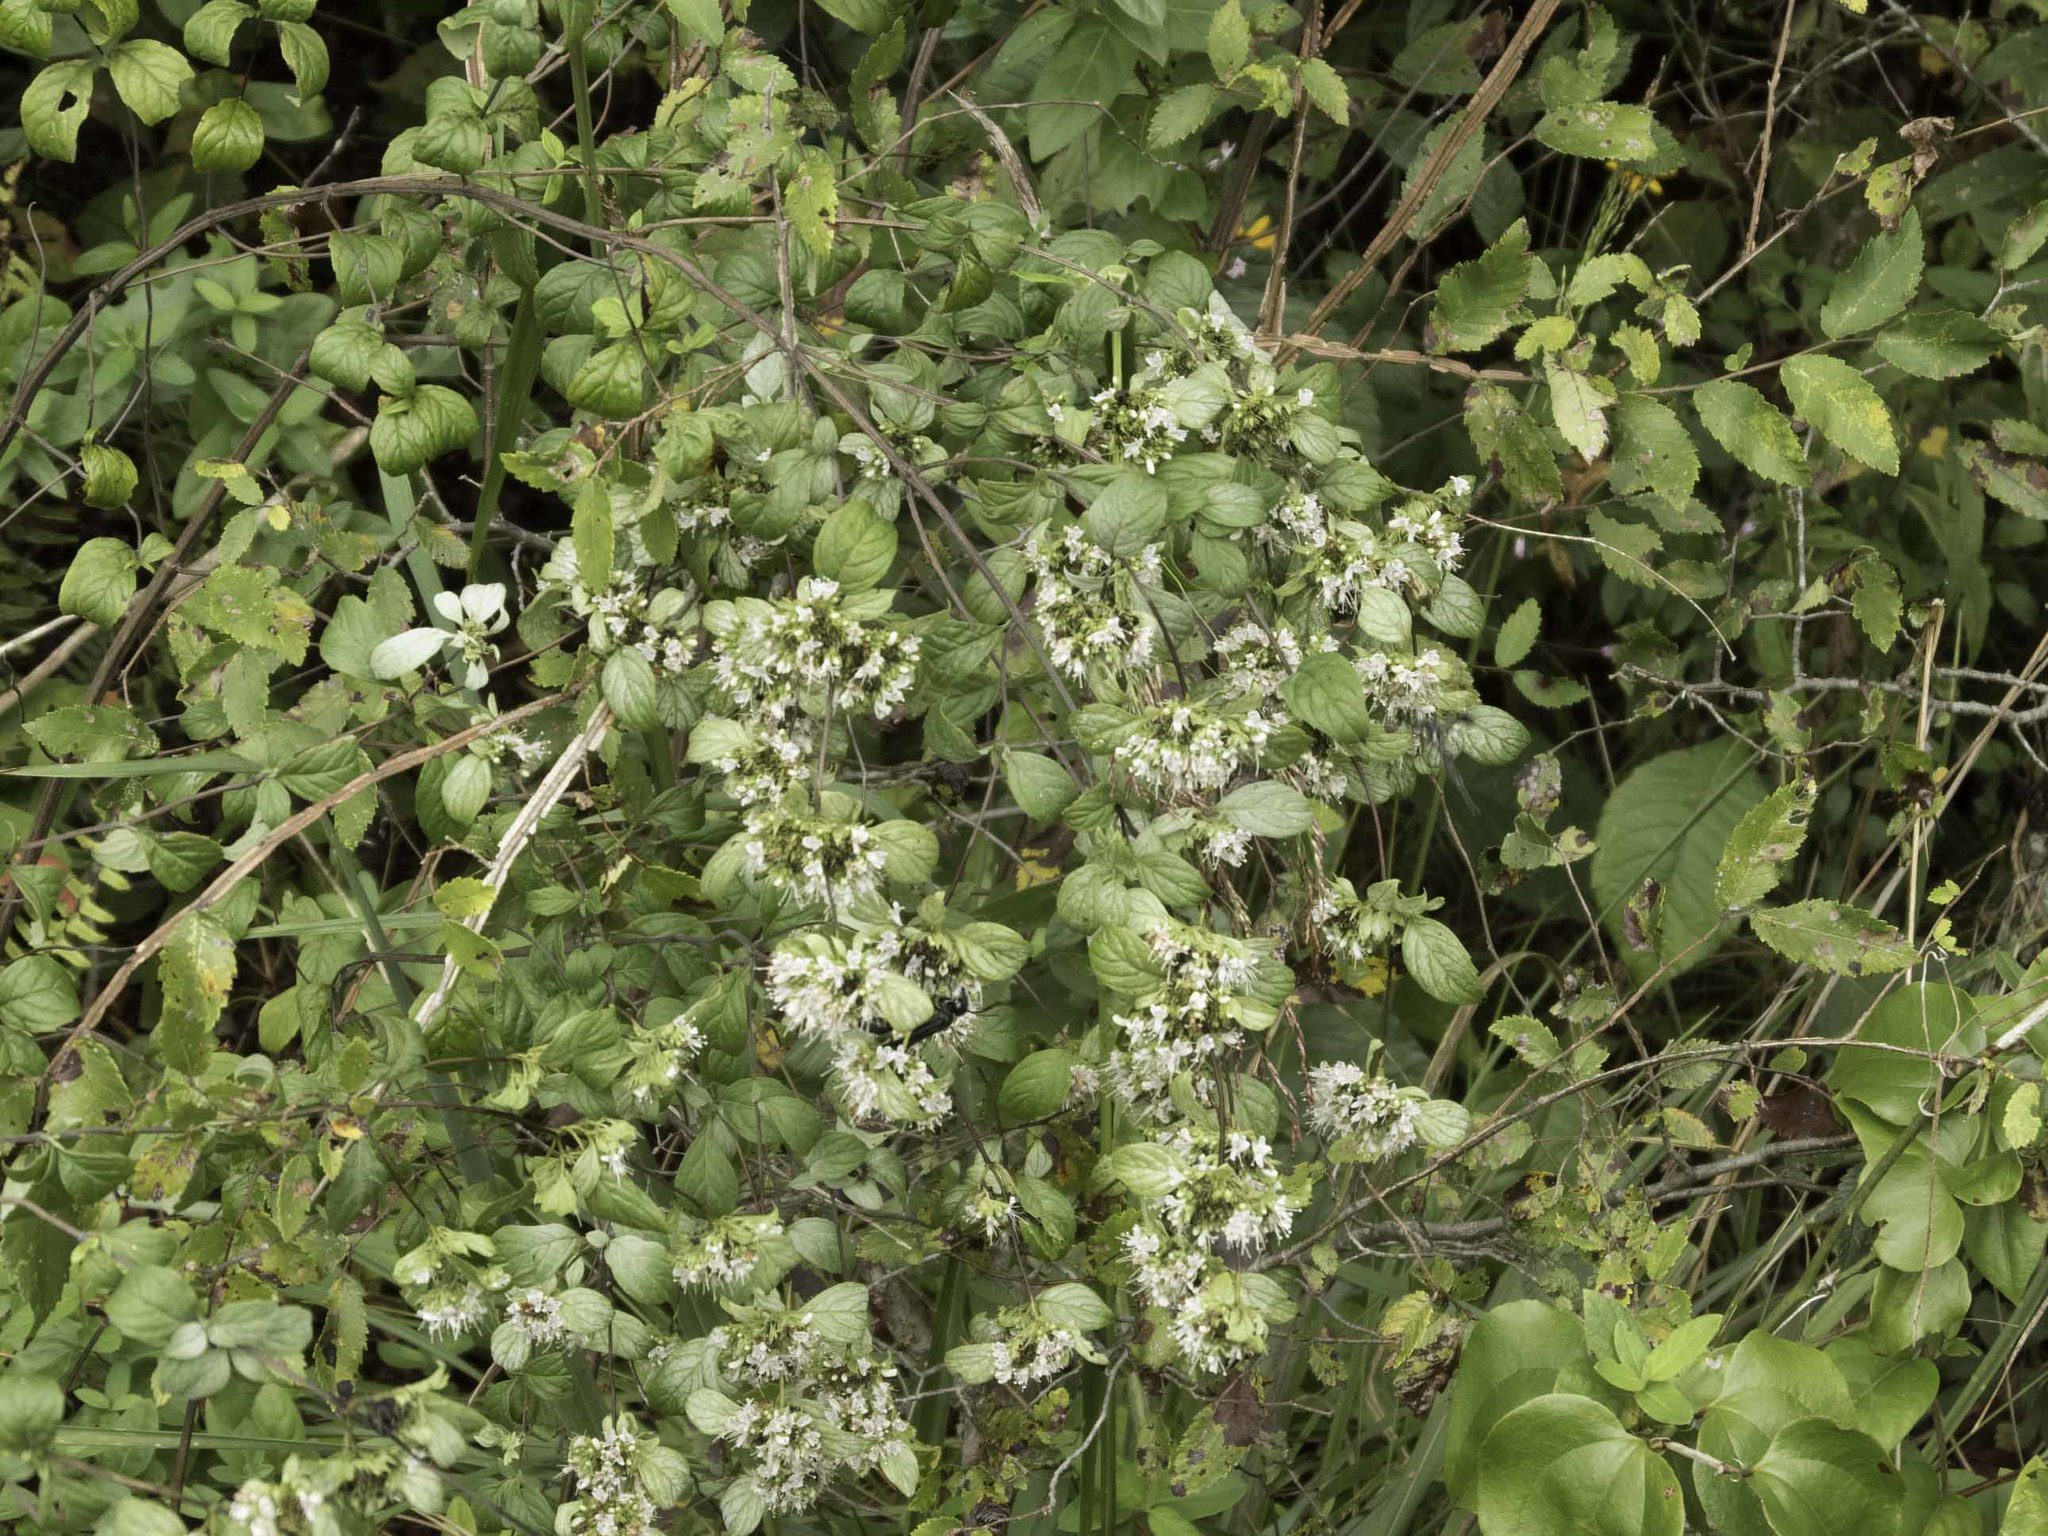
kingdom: Plantae
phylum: Tracheophyta
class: Magnoliopsida
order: Ranunculales
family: Ranunculaceae
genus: Clematis
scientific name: Clematis terniflora
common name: Sweet autumn clematis
